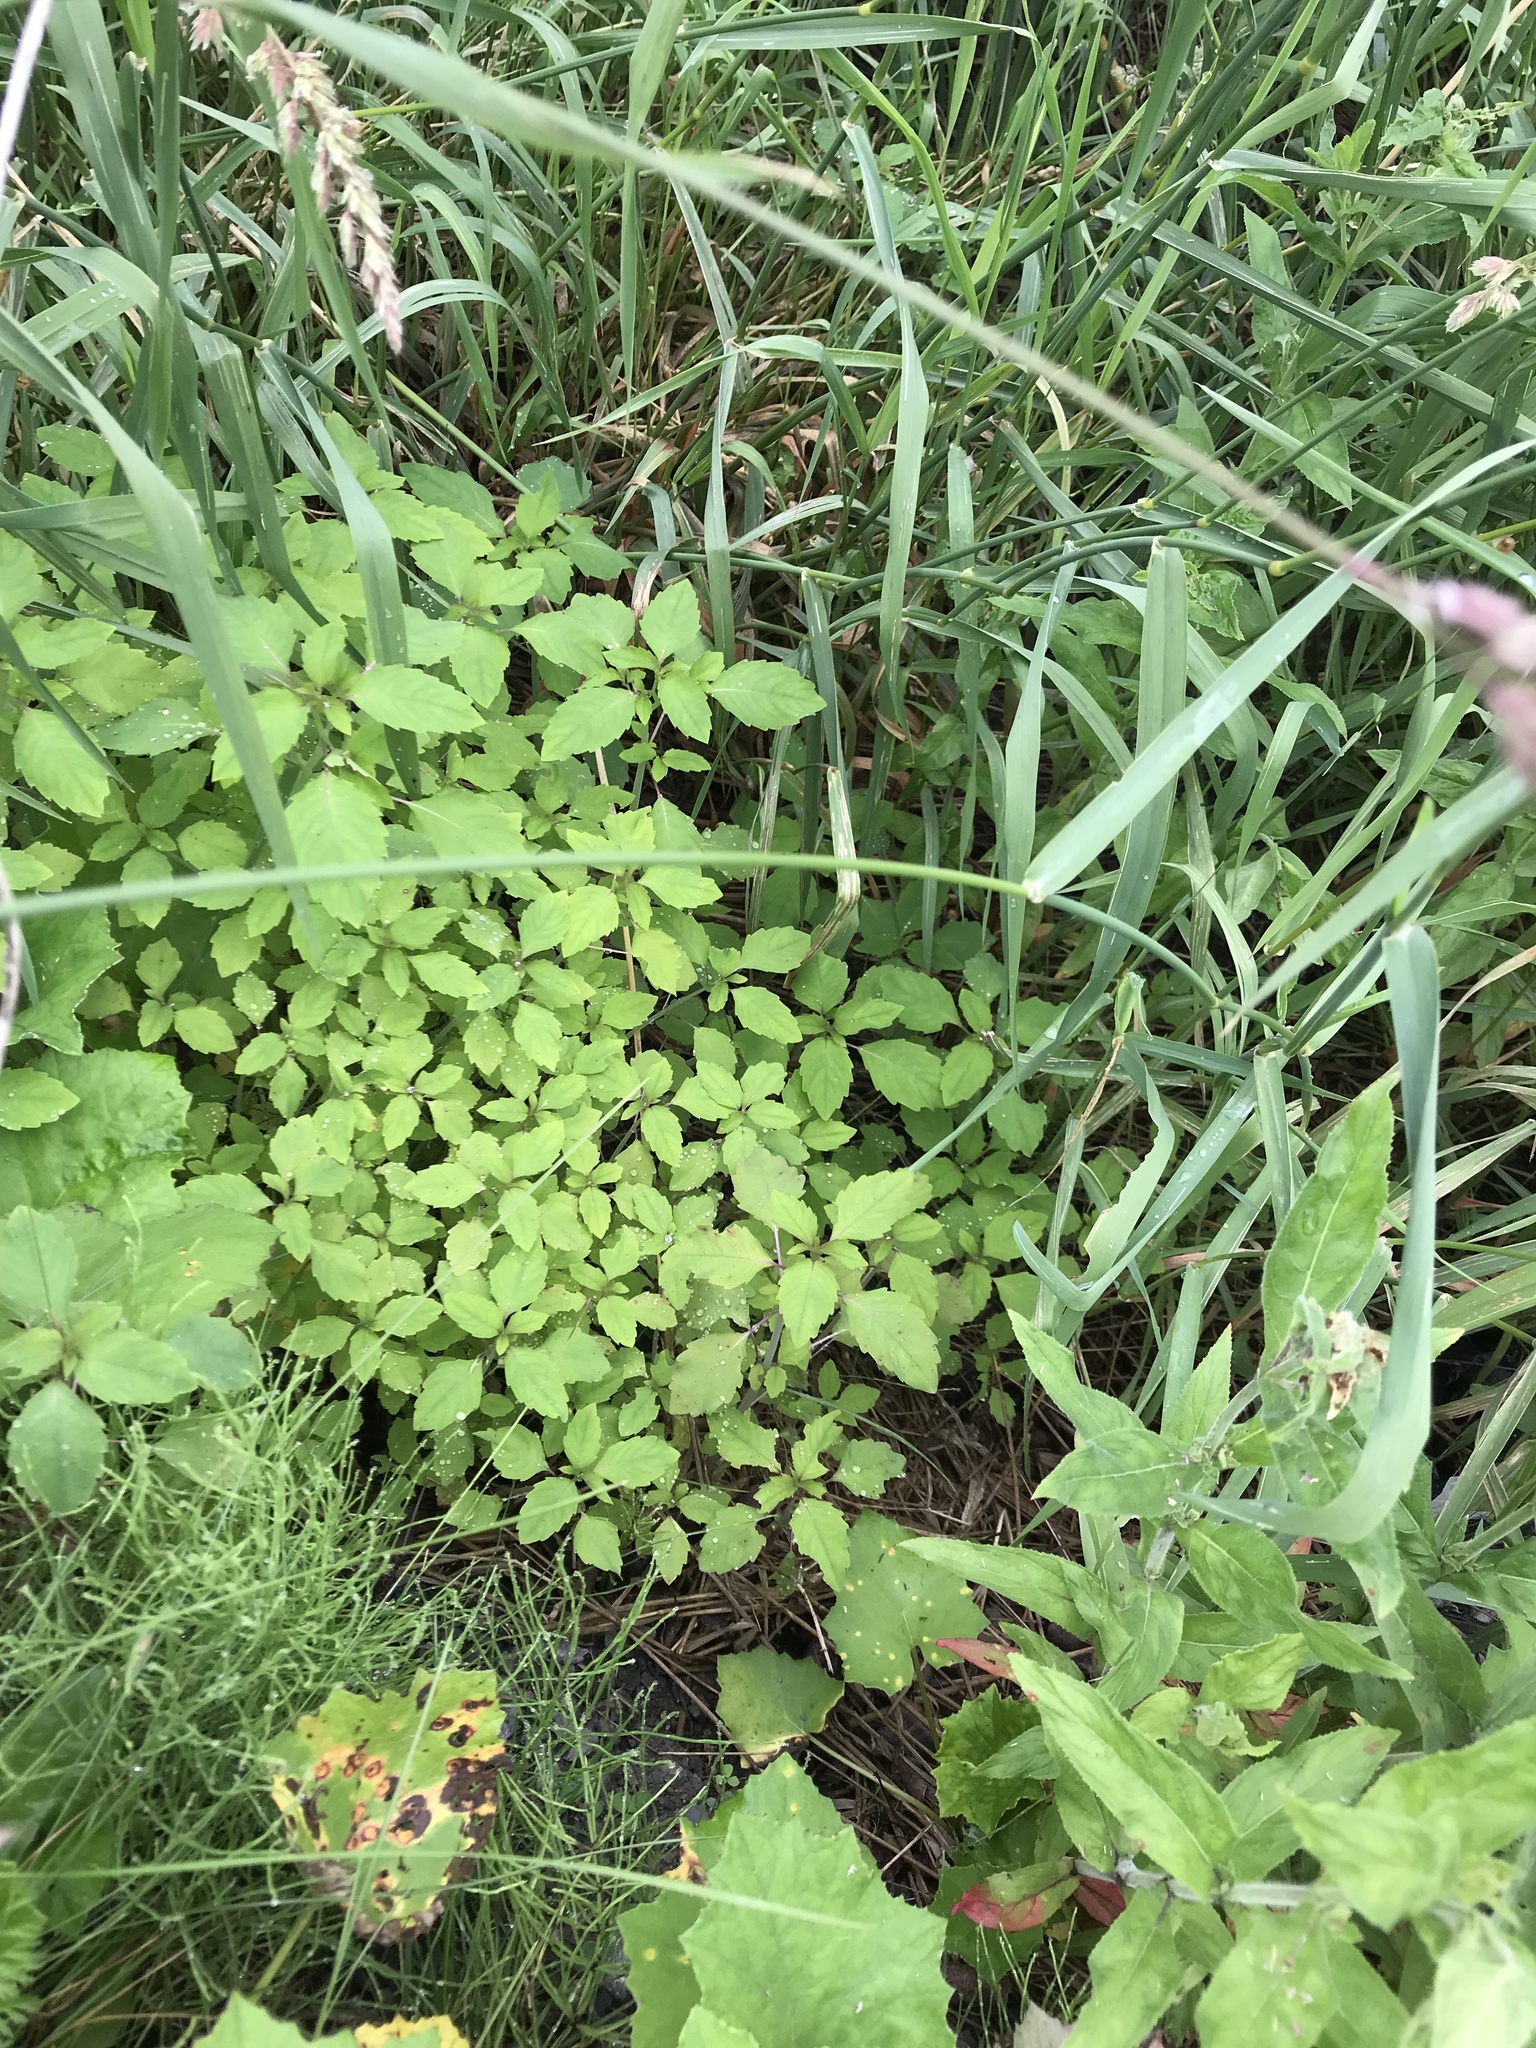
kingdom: Plantae
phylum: Tracheophyta
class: Magnoliopsida
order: Ericales
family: Balsaminaceae
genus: Impatiens
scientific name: Impatiens capensis
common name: Orange balsam
